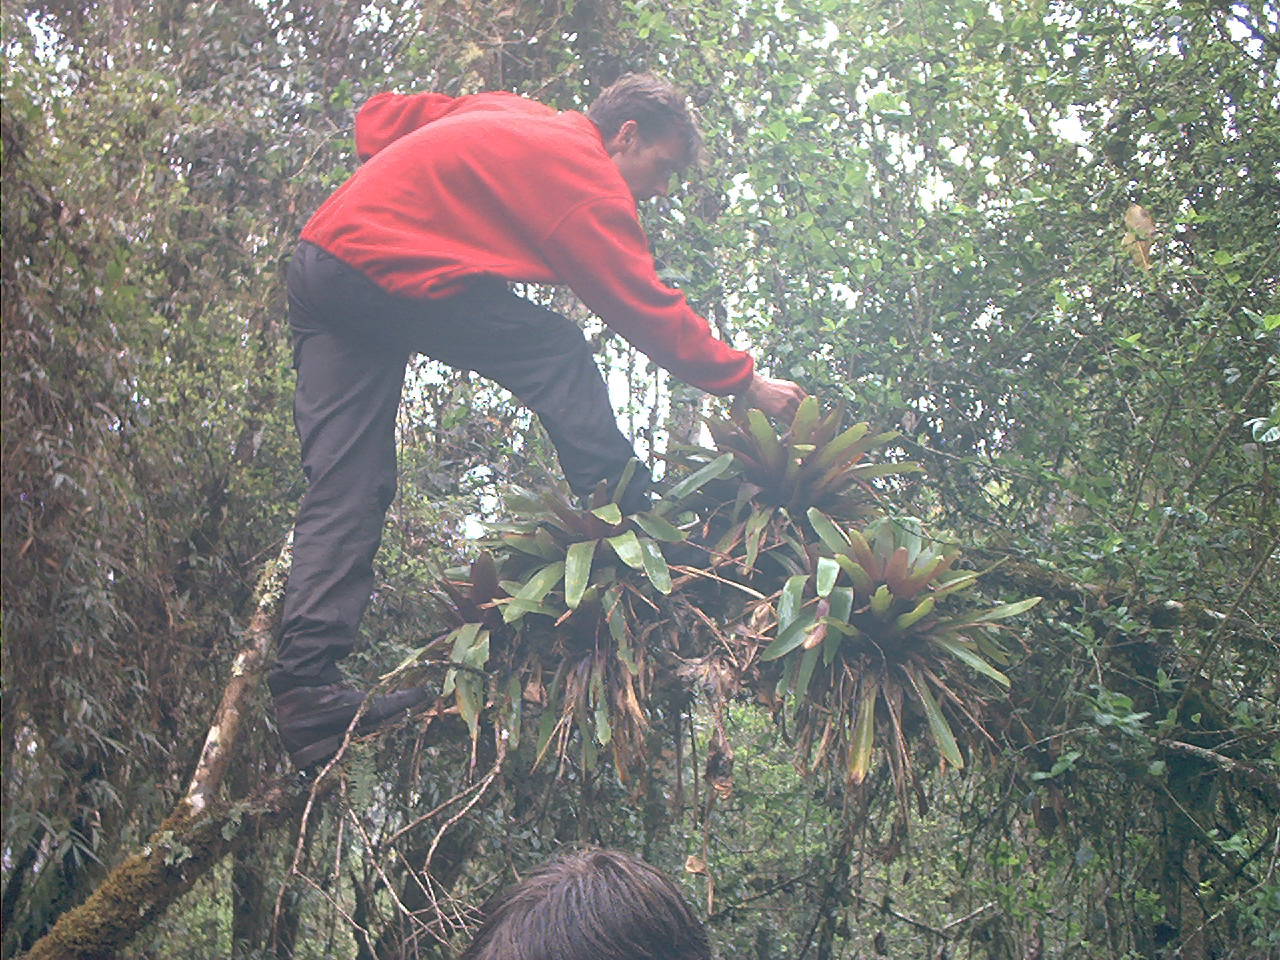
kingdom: Plantae
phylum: Tracheophyta
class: Liliopsida
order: Poales
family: Bromeliaceae
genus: Tillandsia
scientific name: Tillandsia complanata
